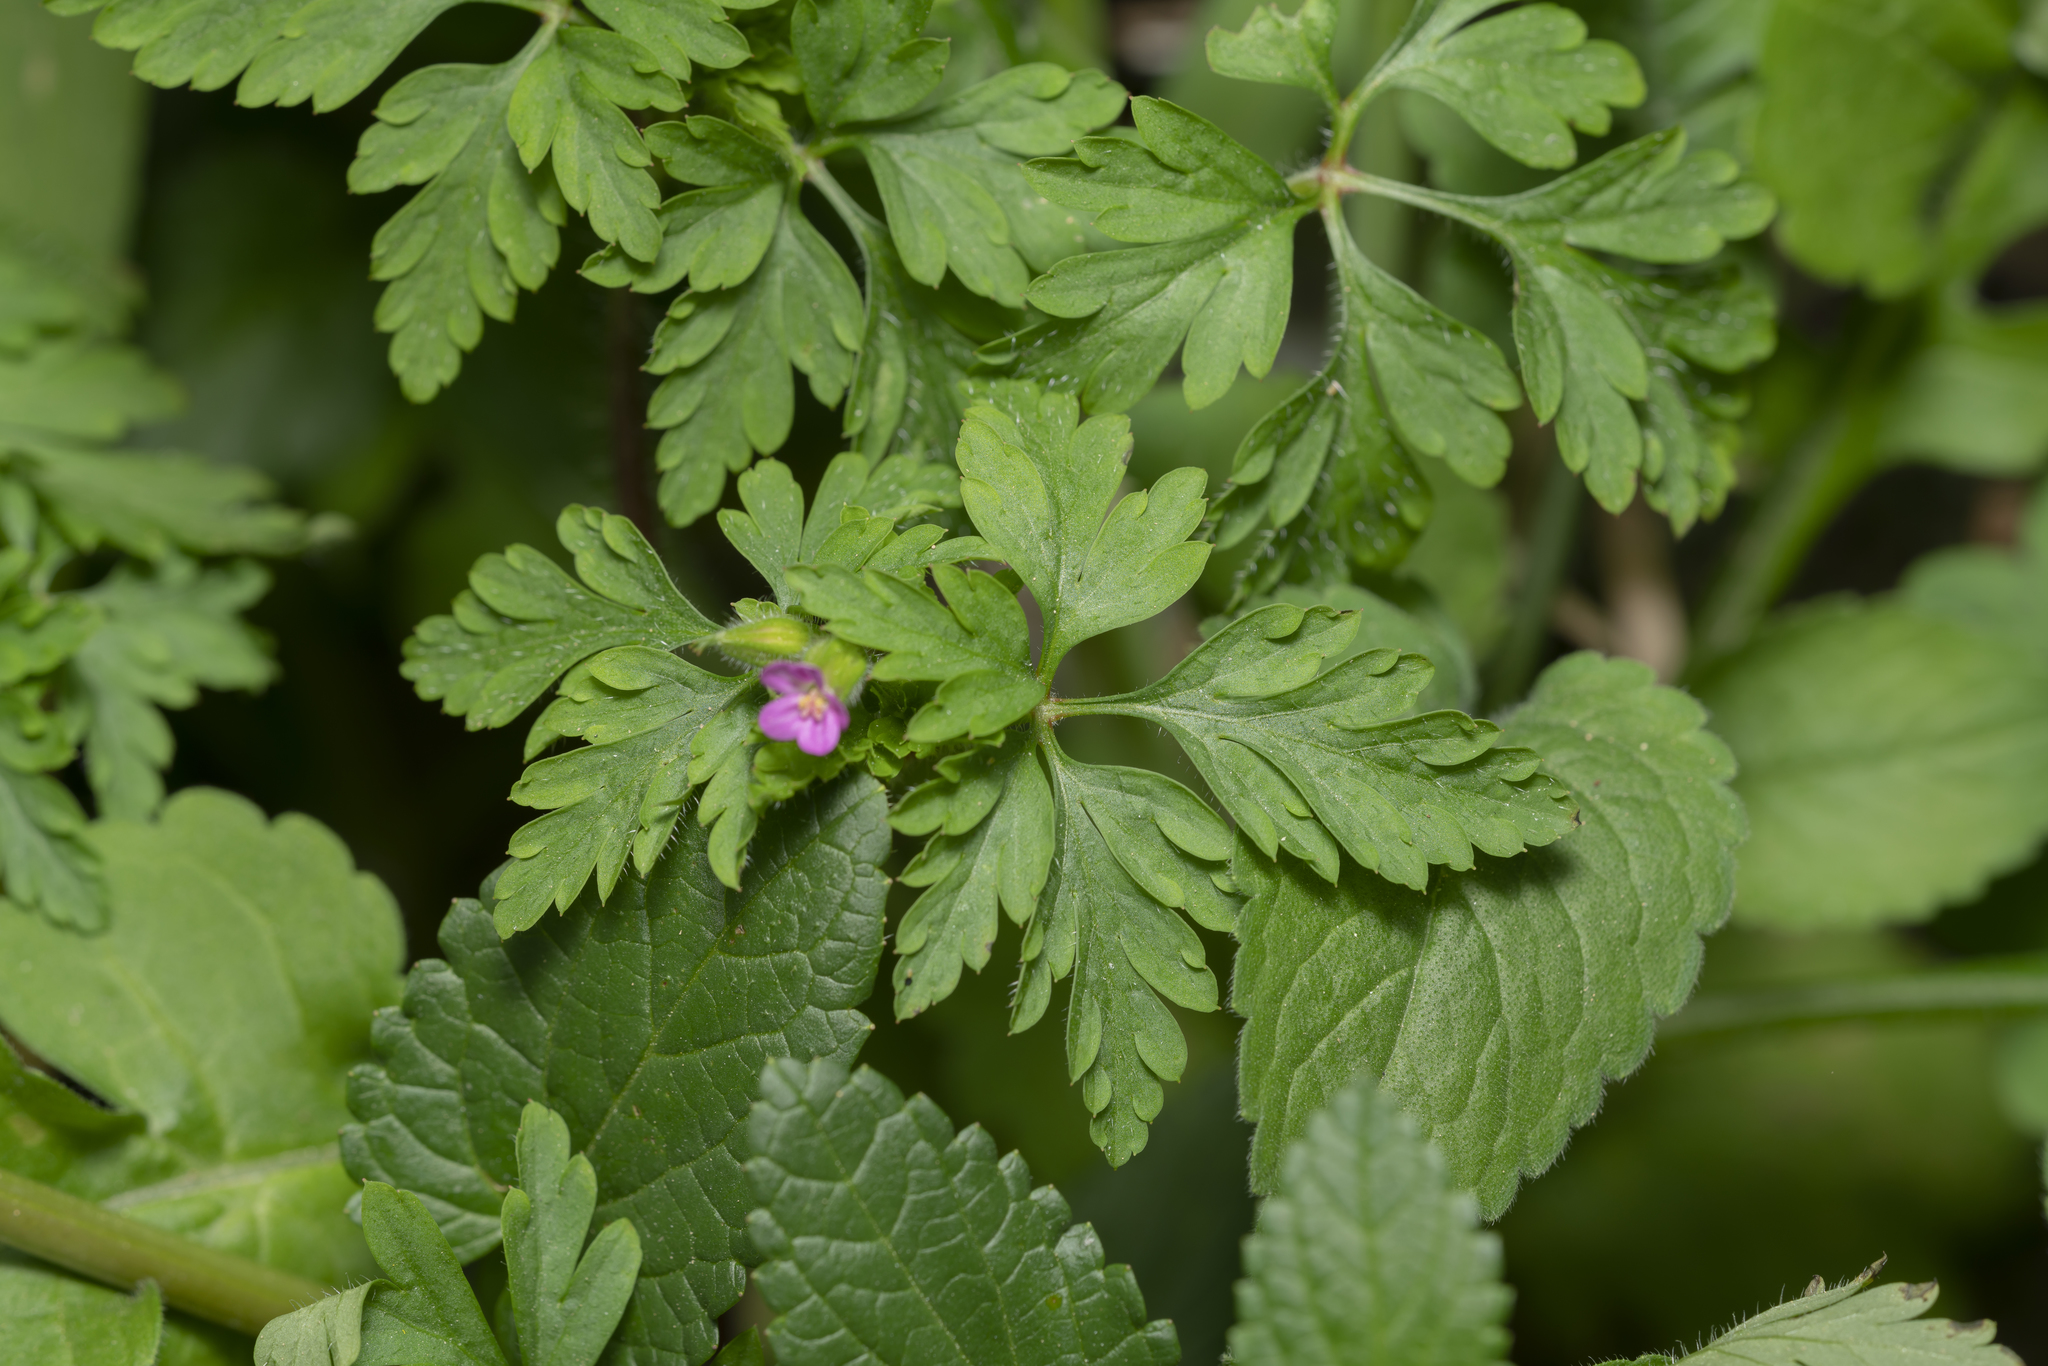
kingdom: Plantae
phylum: Tracheophyta
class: Magnoliopsida
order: Geraniales
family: Geraniaceae
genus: Geranium
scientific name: Geranium purpureum
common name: Little-robin
